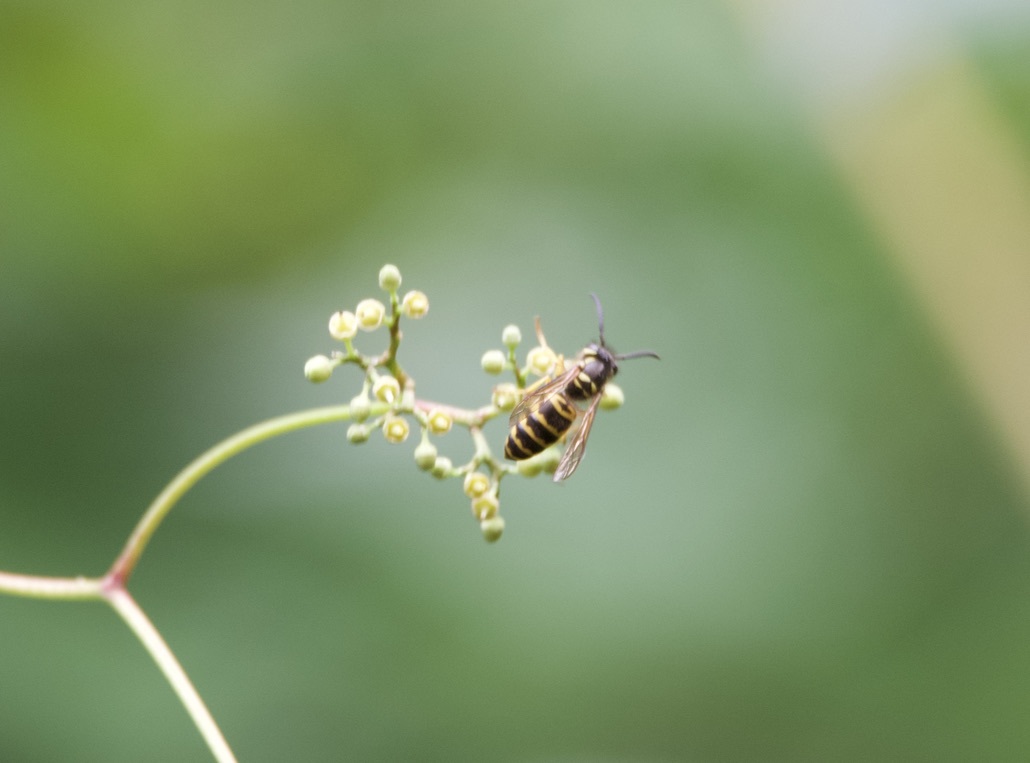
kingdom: Animalia
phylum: Arthropoda
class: Insecta
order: Hymenoptera
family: Vespidae
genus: Vespula
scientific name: Vespula maculifrons
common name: Eastern yellowjacket
